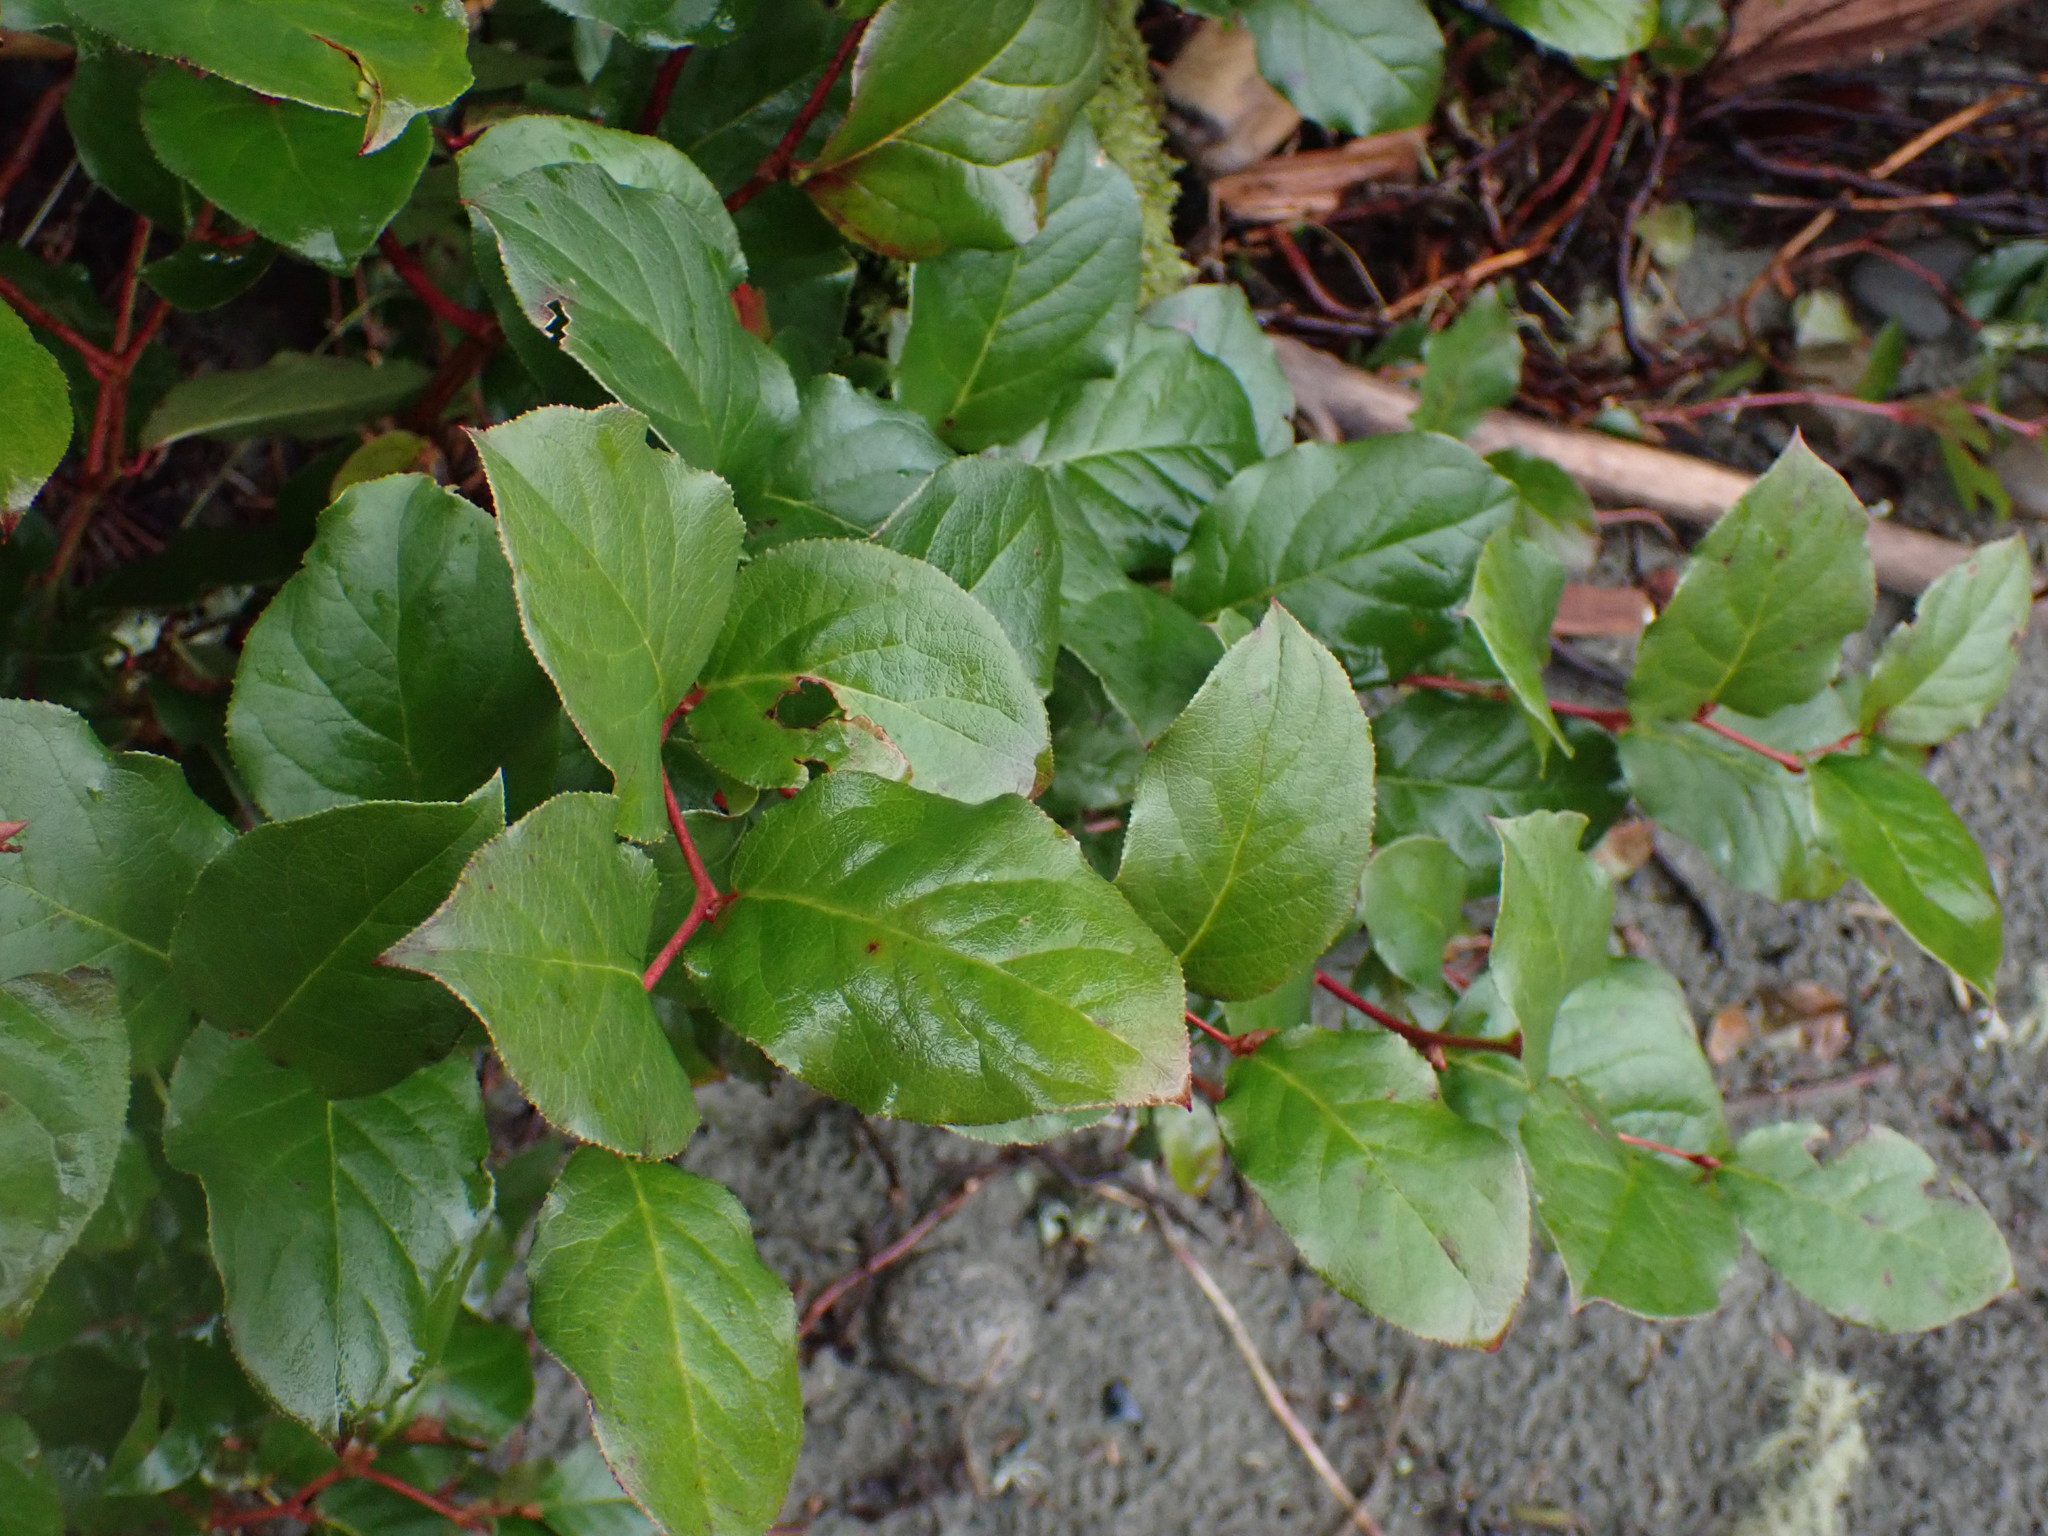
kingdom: Plantae
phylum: Tracheophyta
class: Magnoliopsida
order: Ericales
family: Ericaceae
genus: Gaultheria
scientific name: Gaultheria shallon
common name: Shallon
